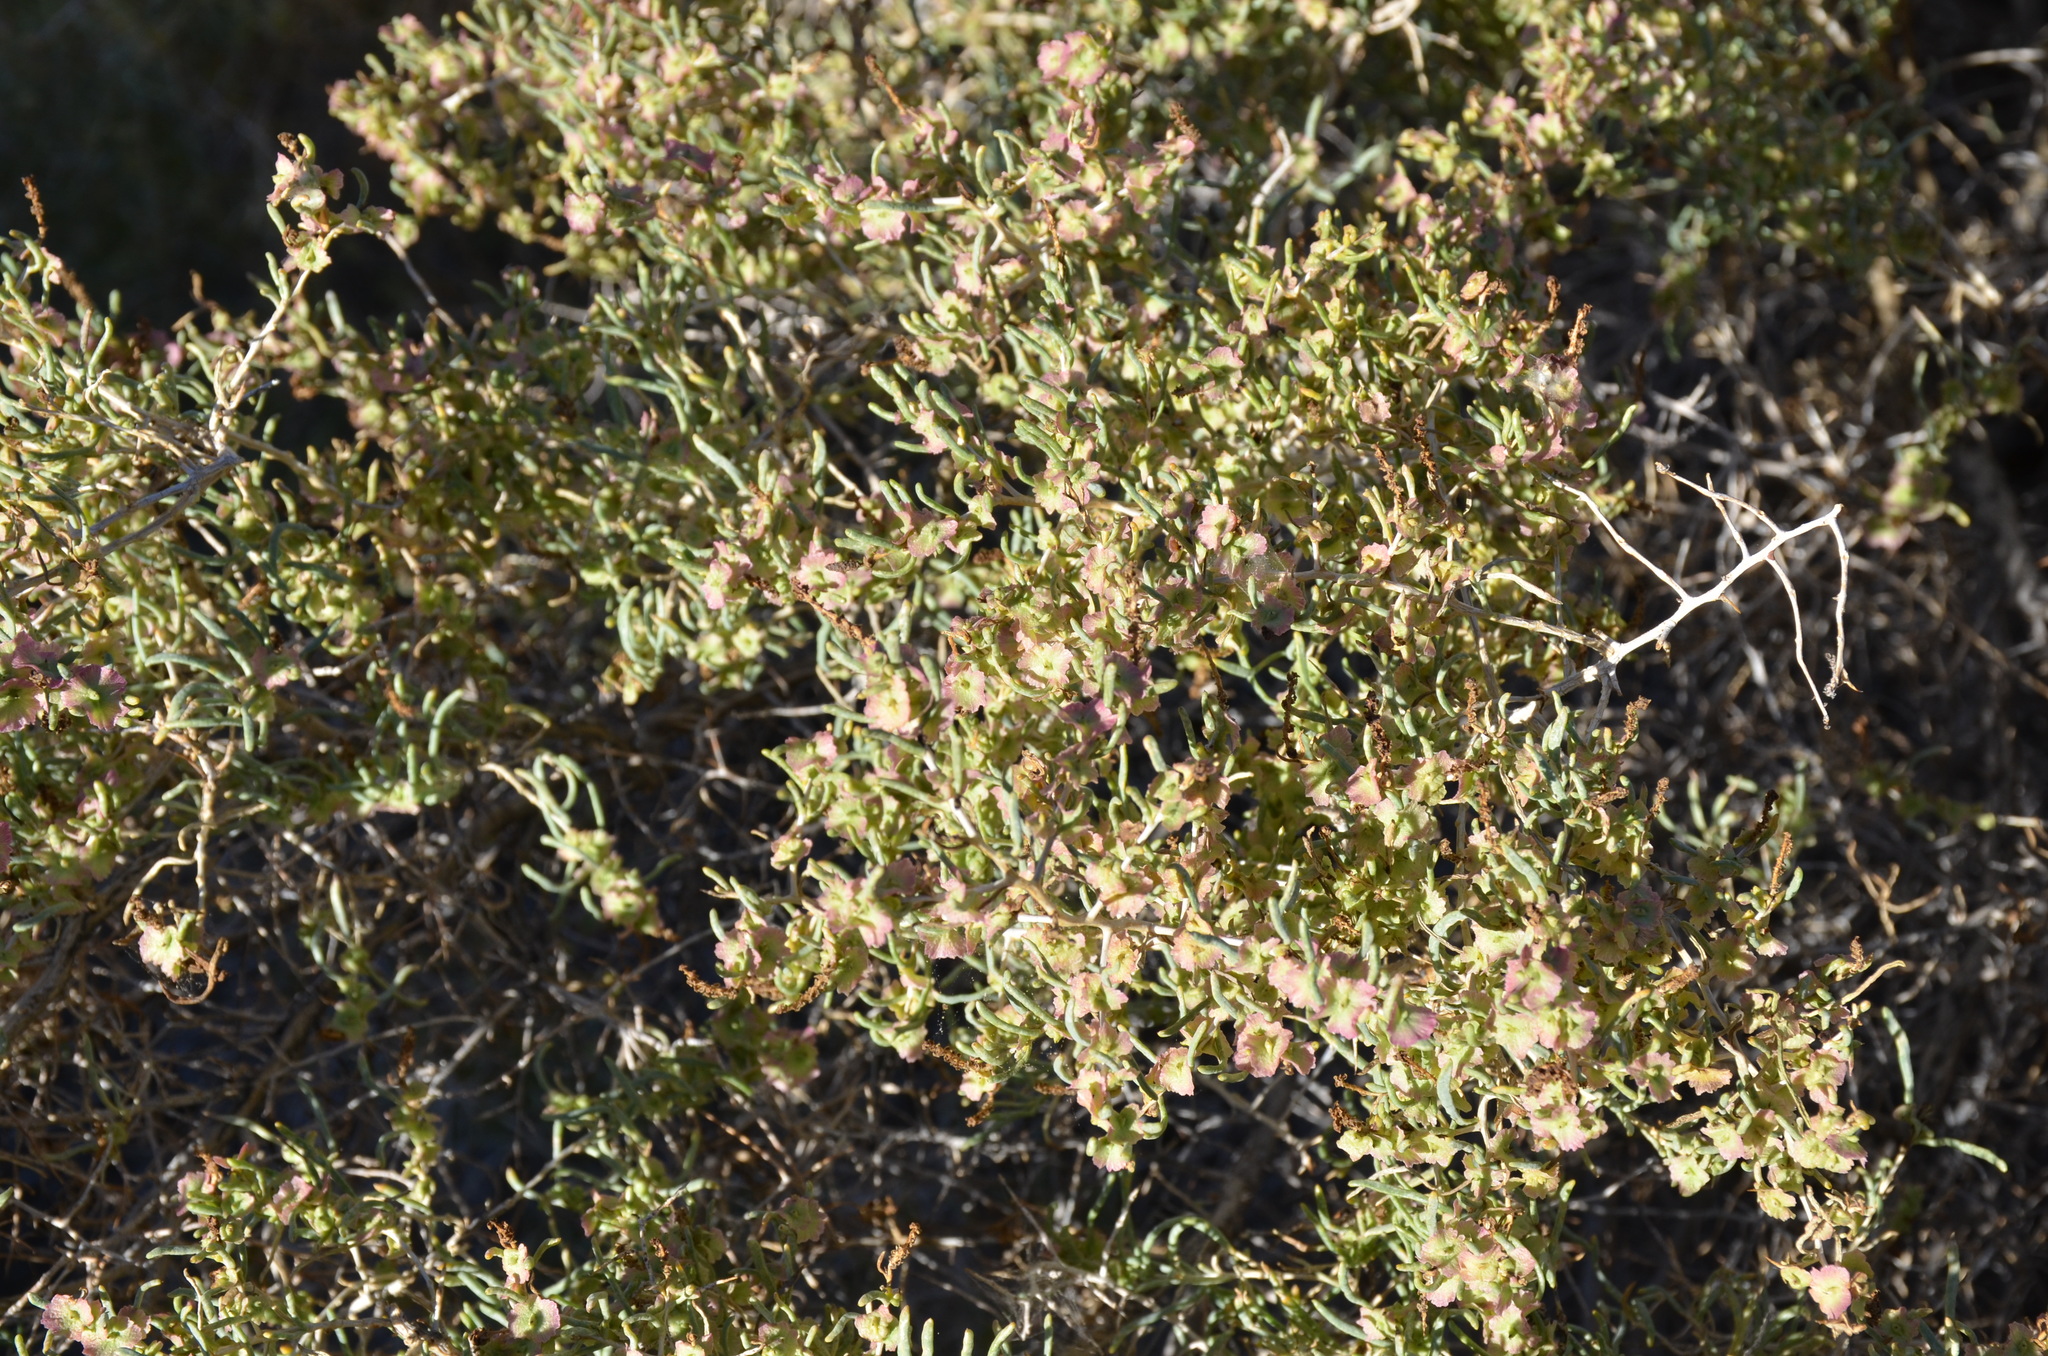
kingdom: Plantae
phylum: Tracheophyta
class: Magnoliopsida
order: Caryophyllales
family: Sarcobataceae
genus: Sarcobatus
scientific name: Sarcobatus vermiculatus
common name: Greasewood
